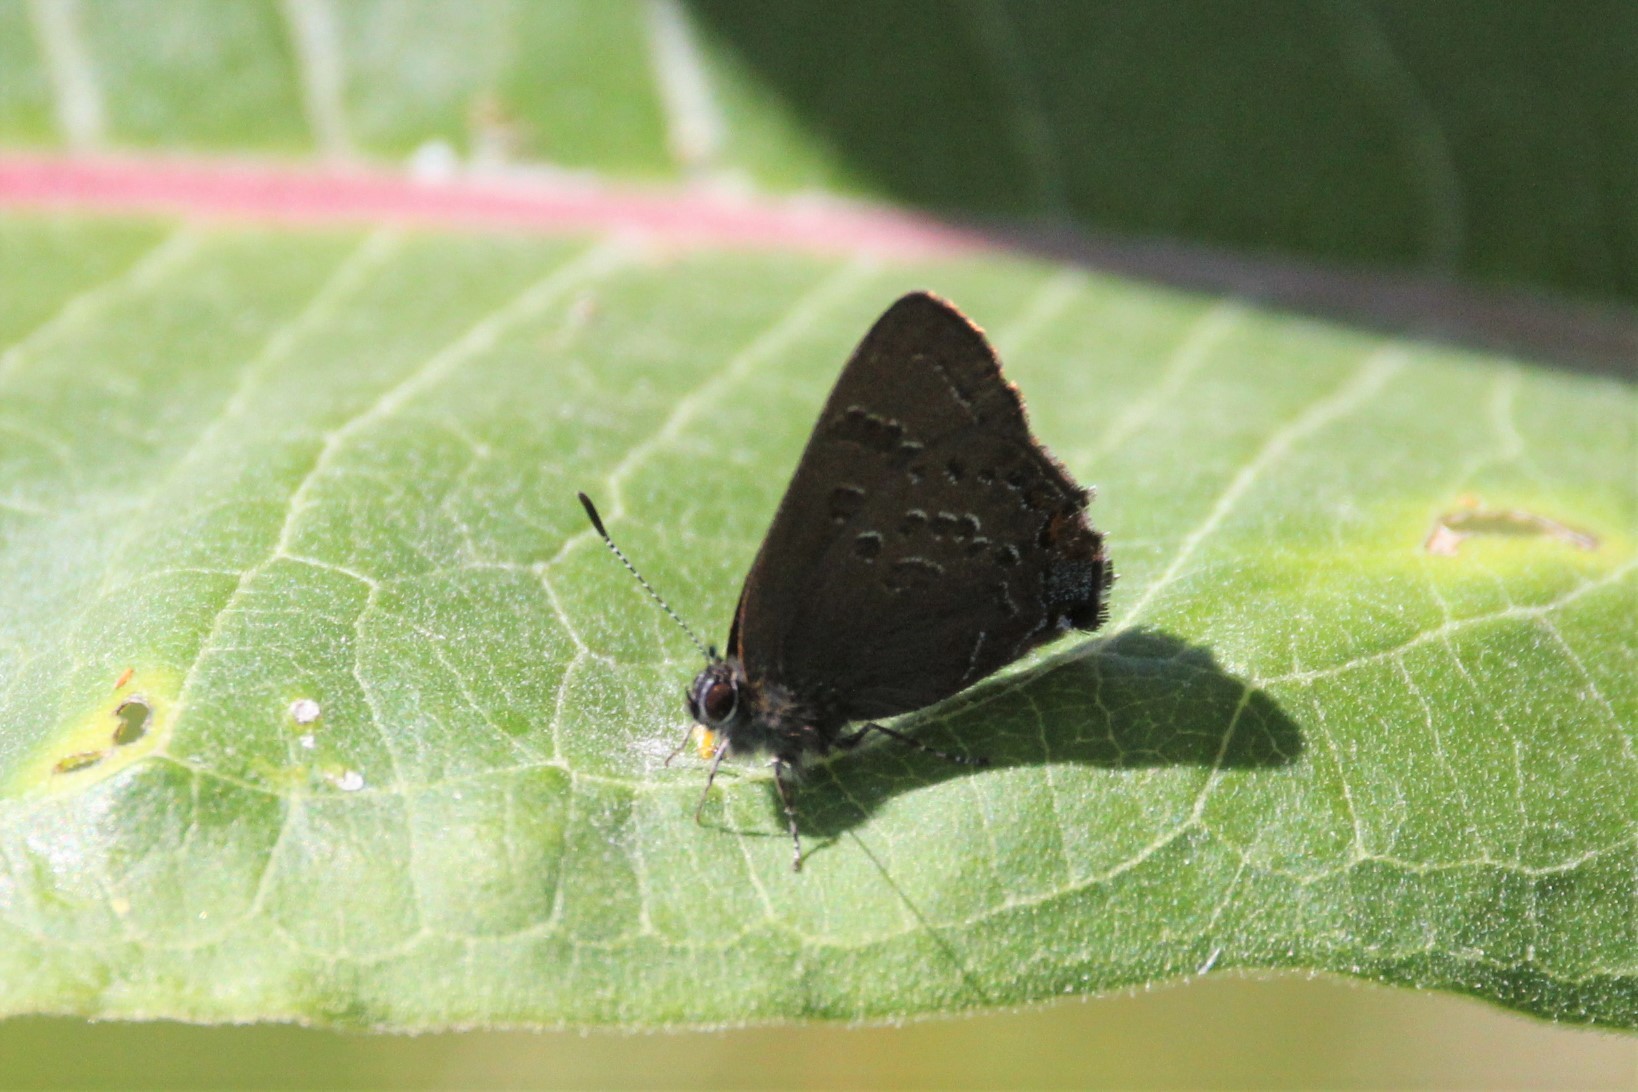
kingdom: Animalia
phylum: Arthropoda
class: Insecta
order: Lepidoptera
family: Lycaenidae
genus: Satyrium
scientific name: Satyrium calanus
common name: Banded hairstreak
